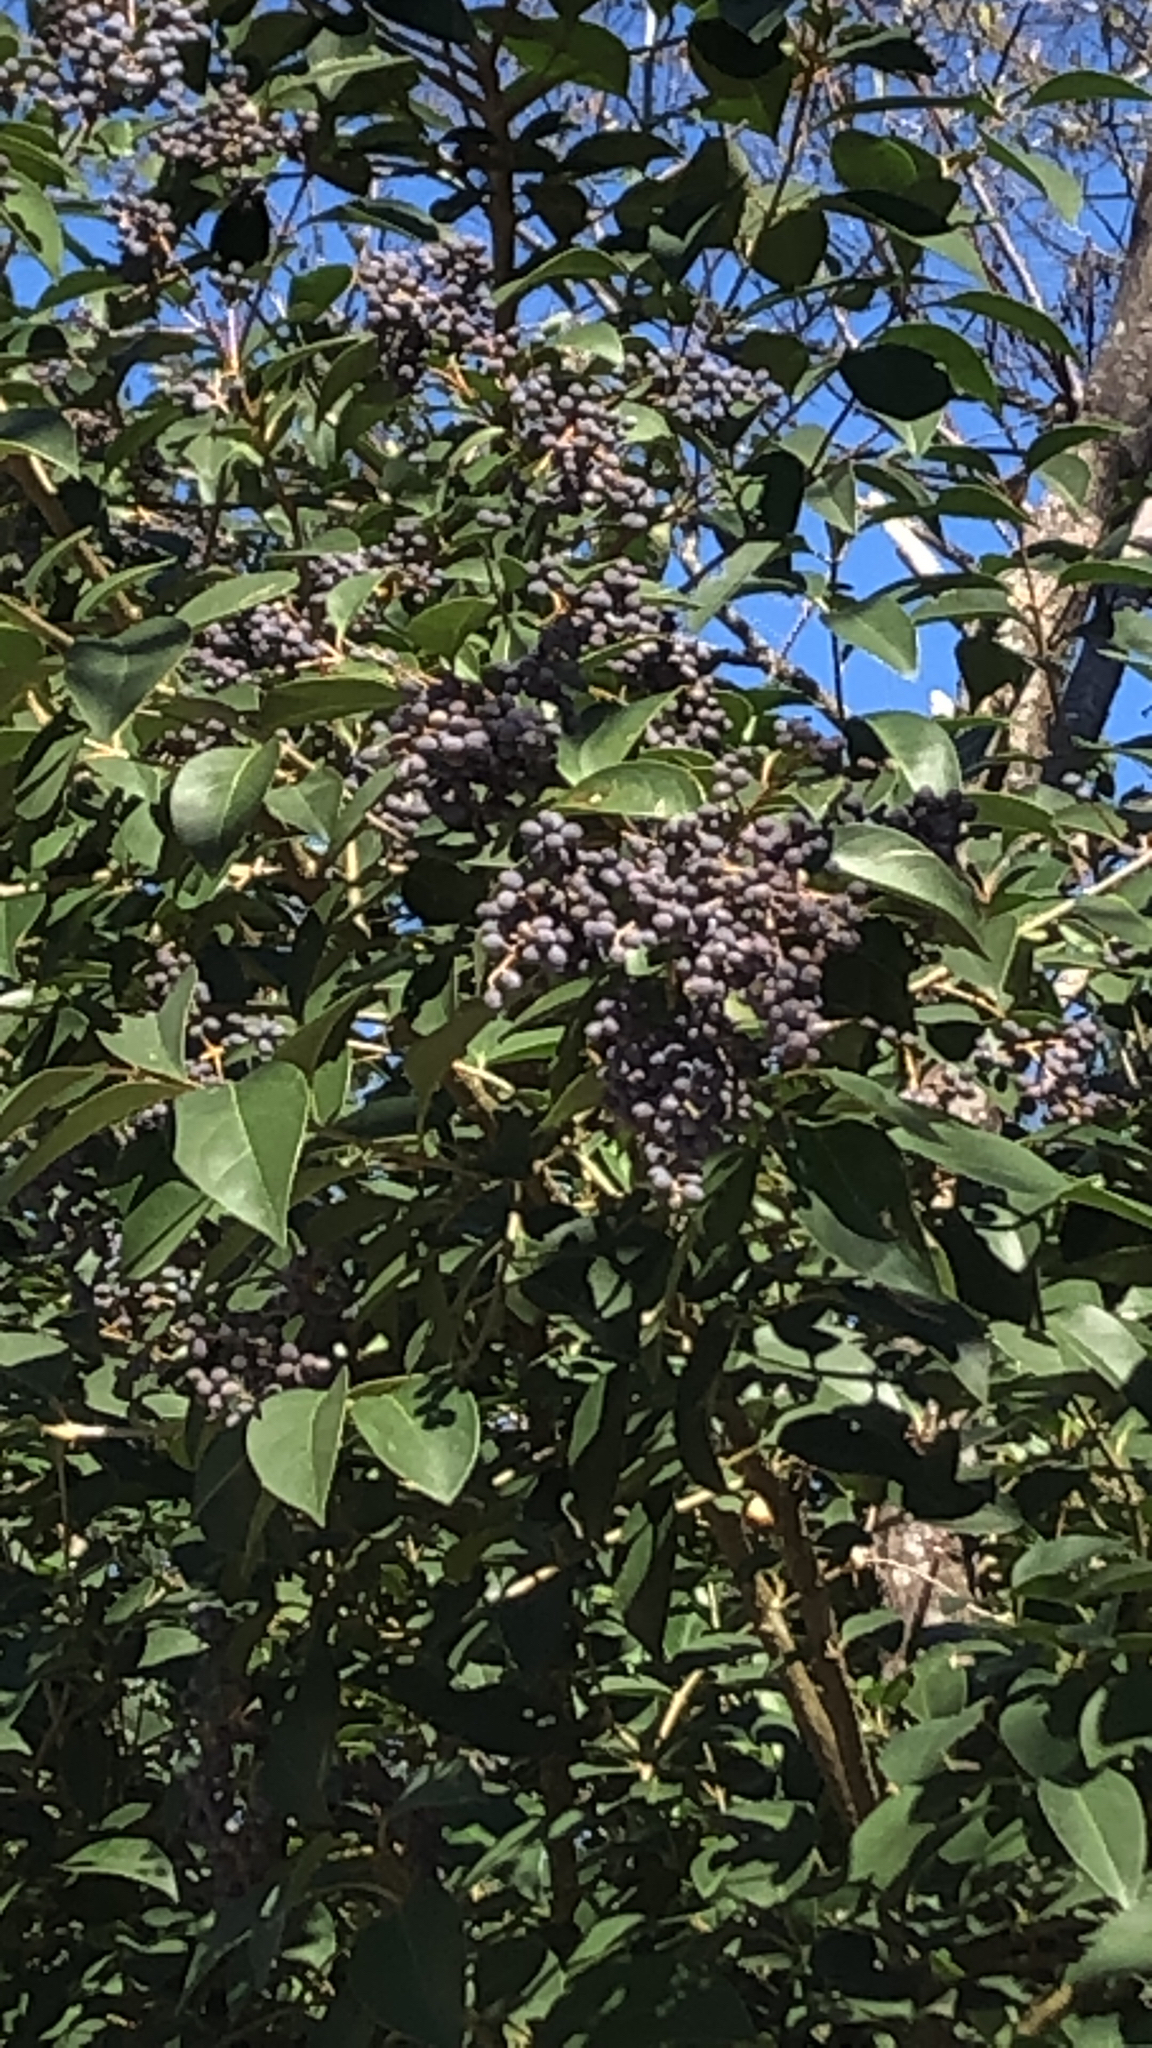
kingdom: Plantae
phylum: Tracheophyta
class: Magnoliopsida
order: Lamiales
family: Oleaceae
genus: Ligustrum
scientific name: Ligustrum lucidum
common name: Glossy privet
